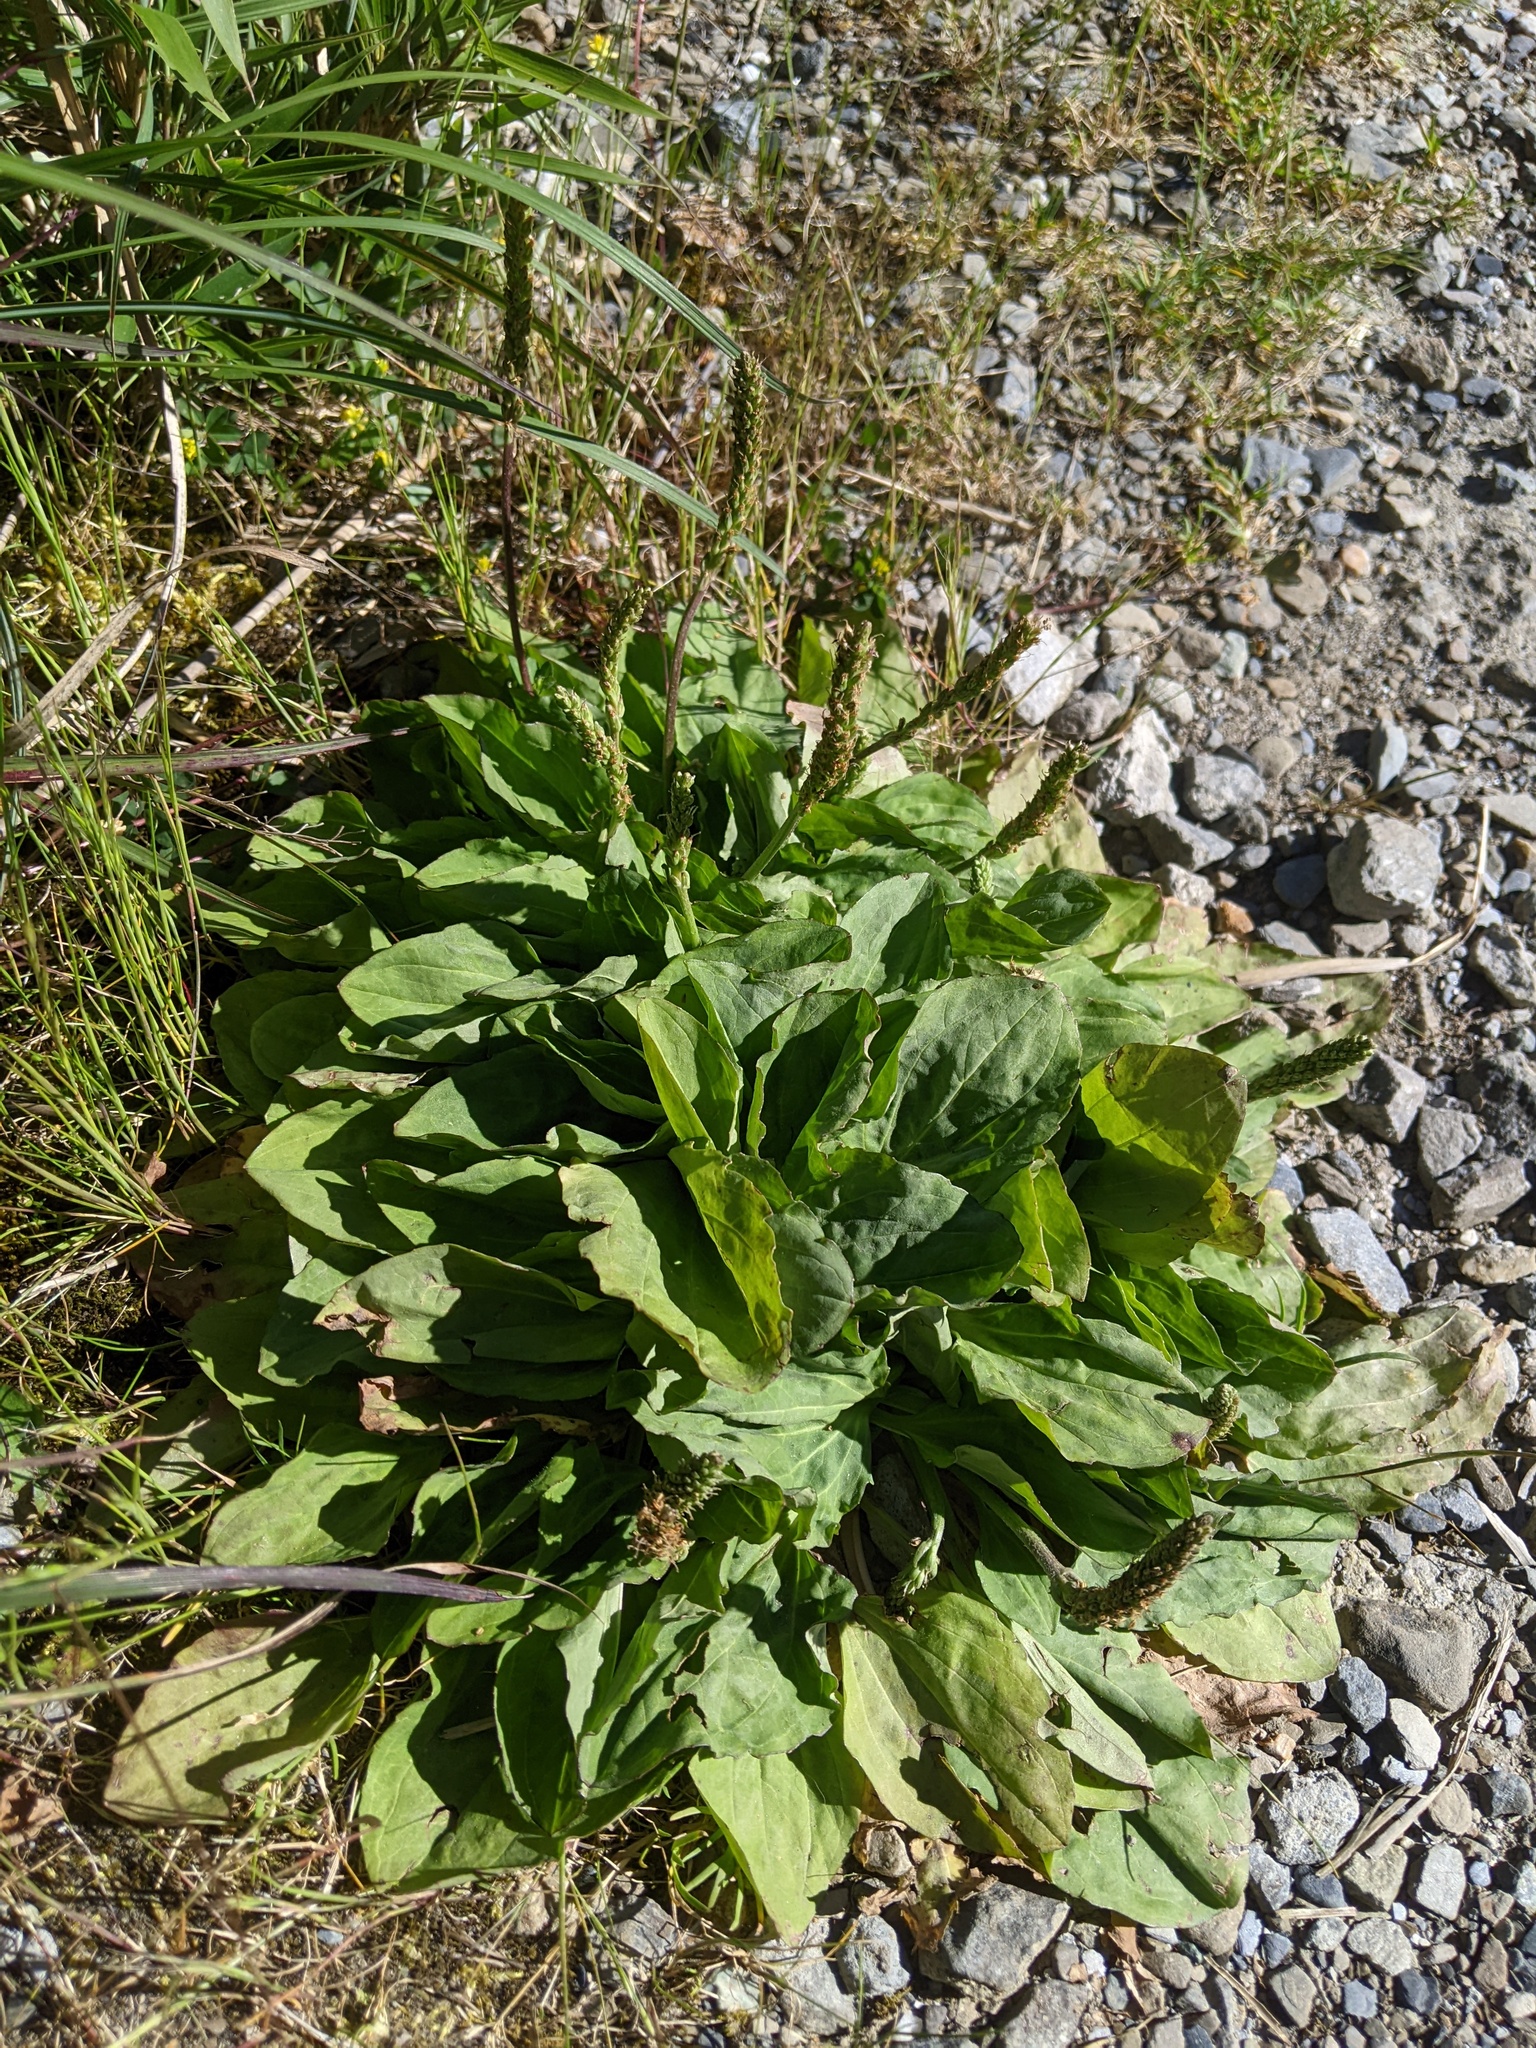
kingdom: Plantae
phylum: Tracheophyta
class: Magnoliopsida
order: Lamiales
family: Plantaginaceae
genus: Plantago
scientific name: Plantago asiatica
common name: Psyllium
